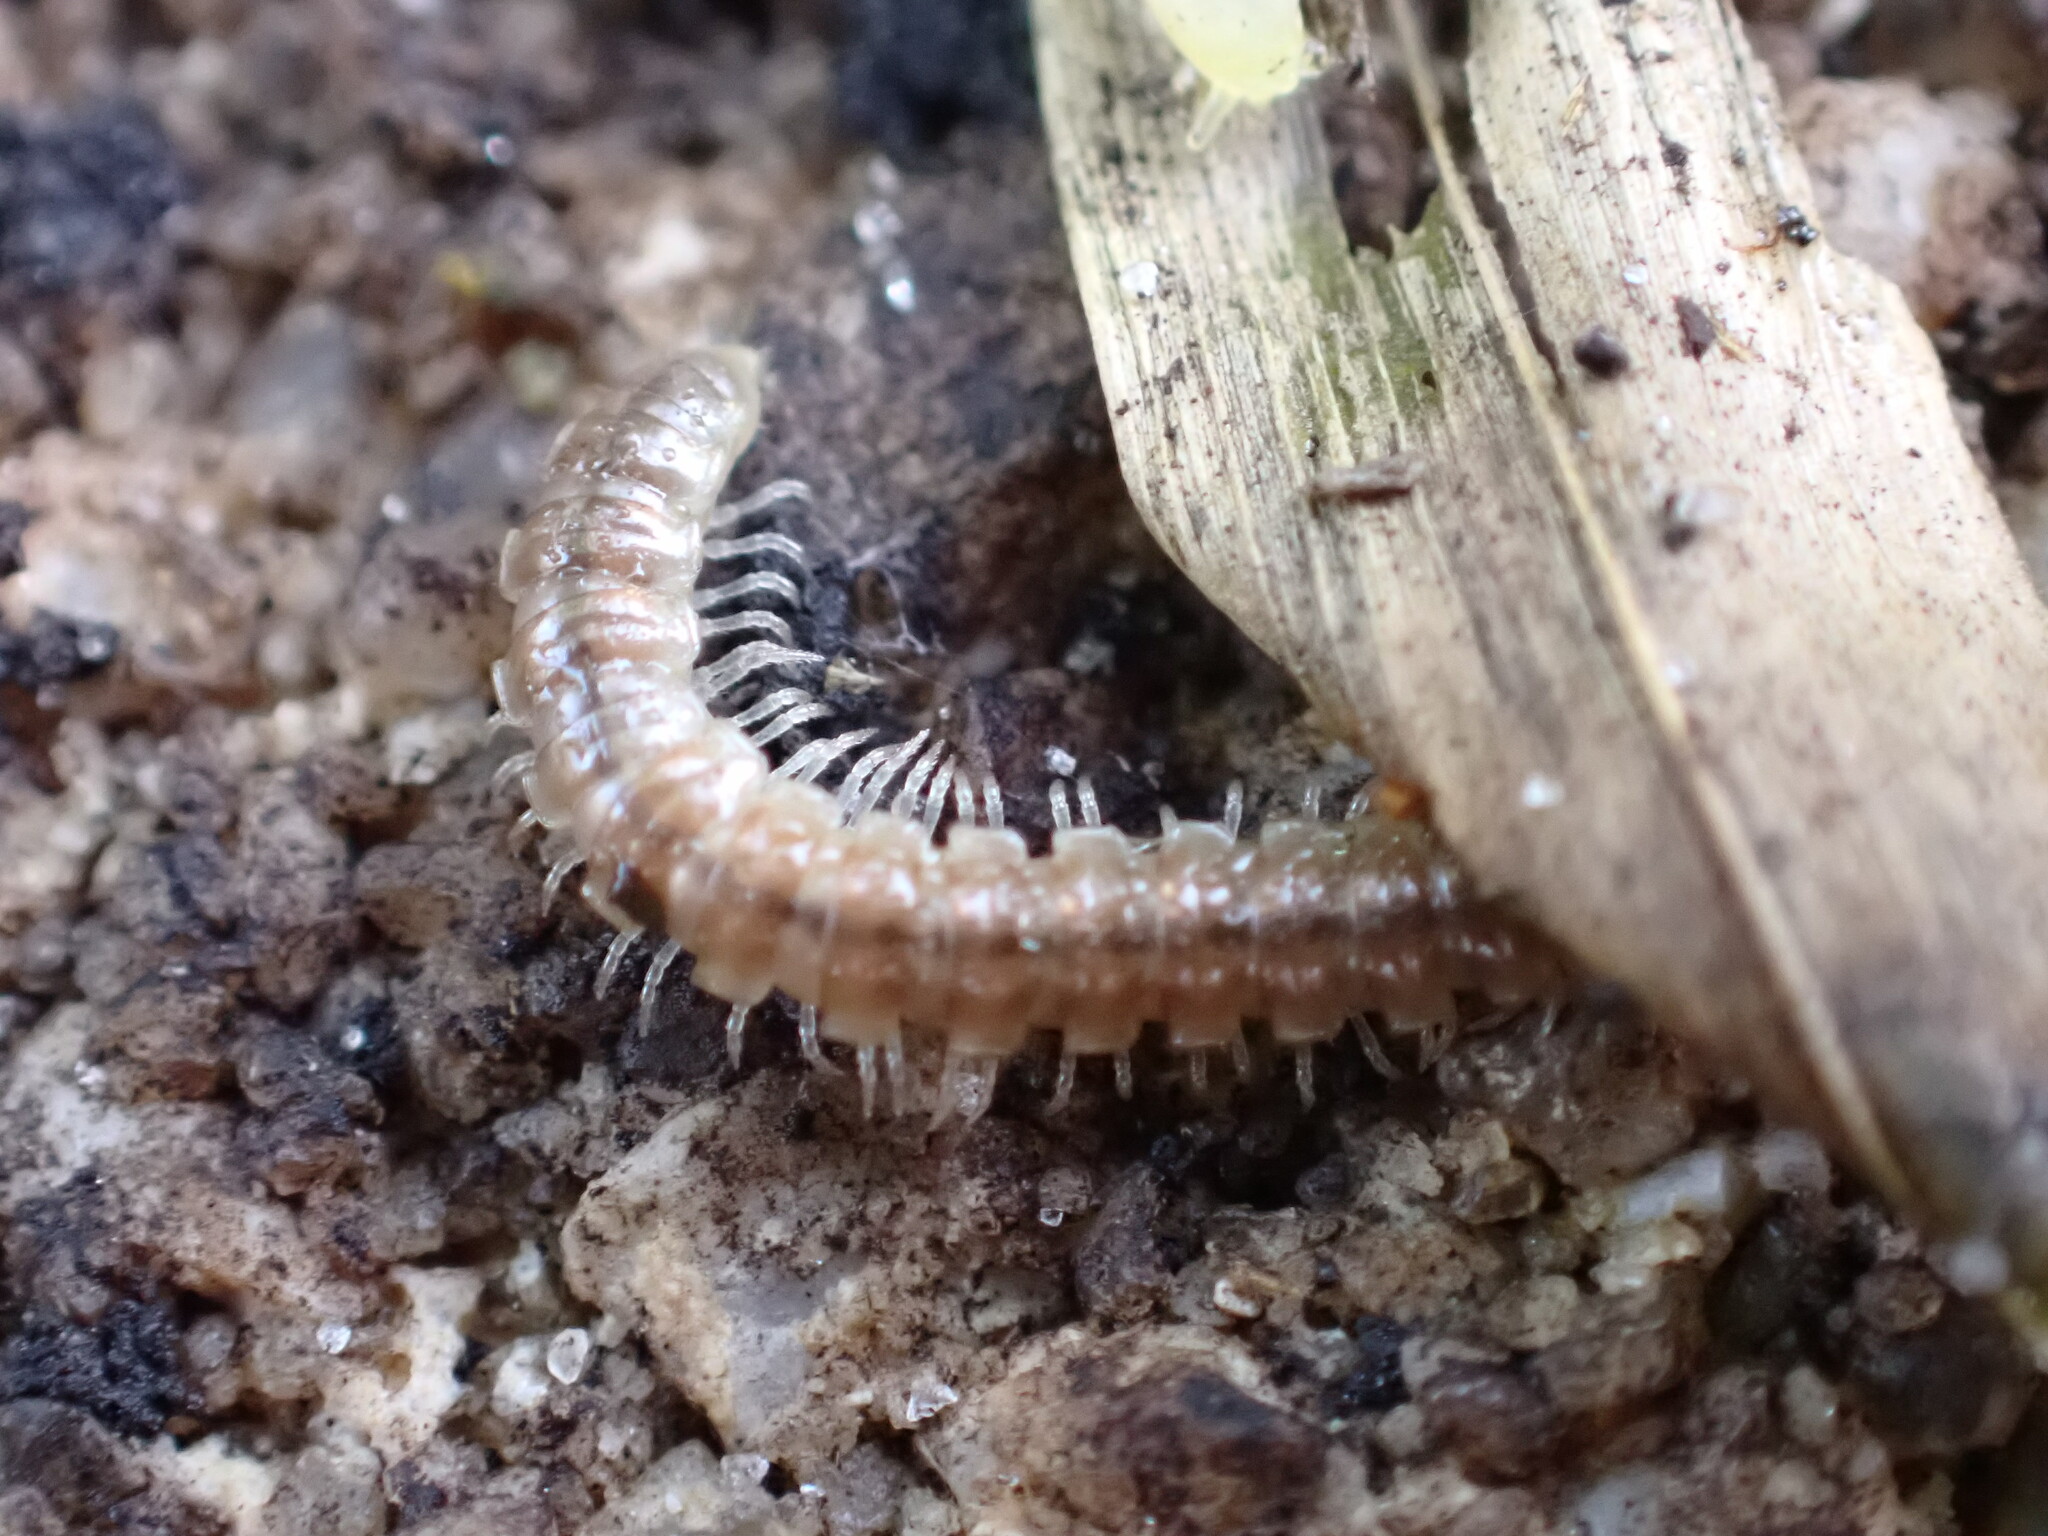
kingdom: Animalia
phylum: Arthropoda
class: Diplopoda
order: Polydesmida
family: Paradoxosomatidae
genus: Oxidus
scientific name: Oxidus gracilis
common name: Greenhouse millipede
